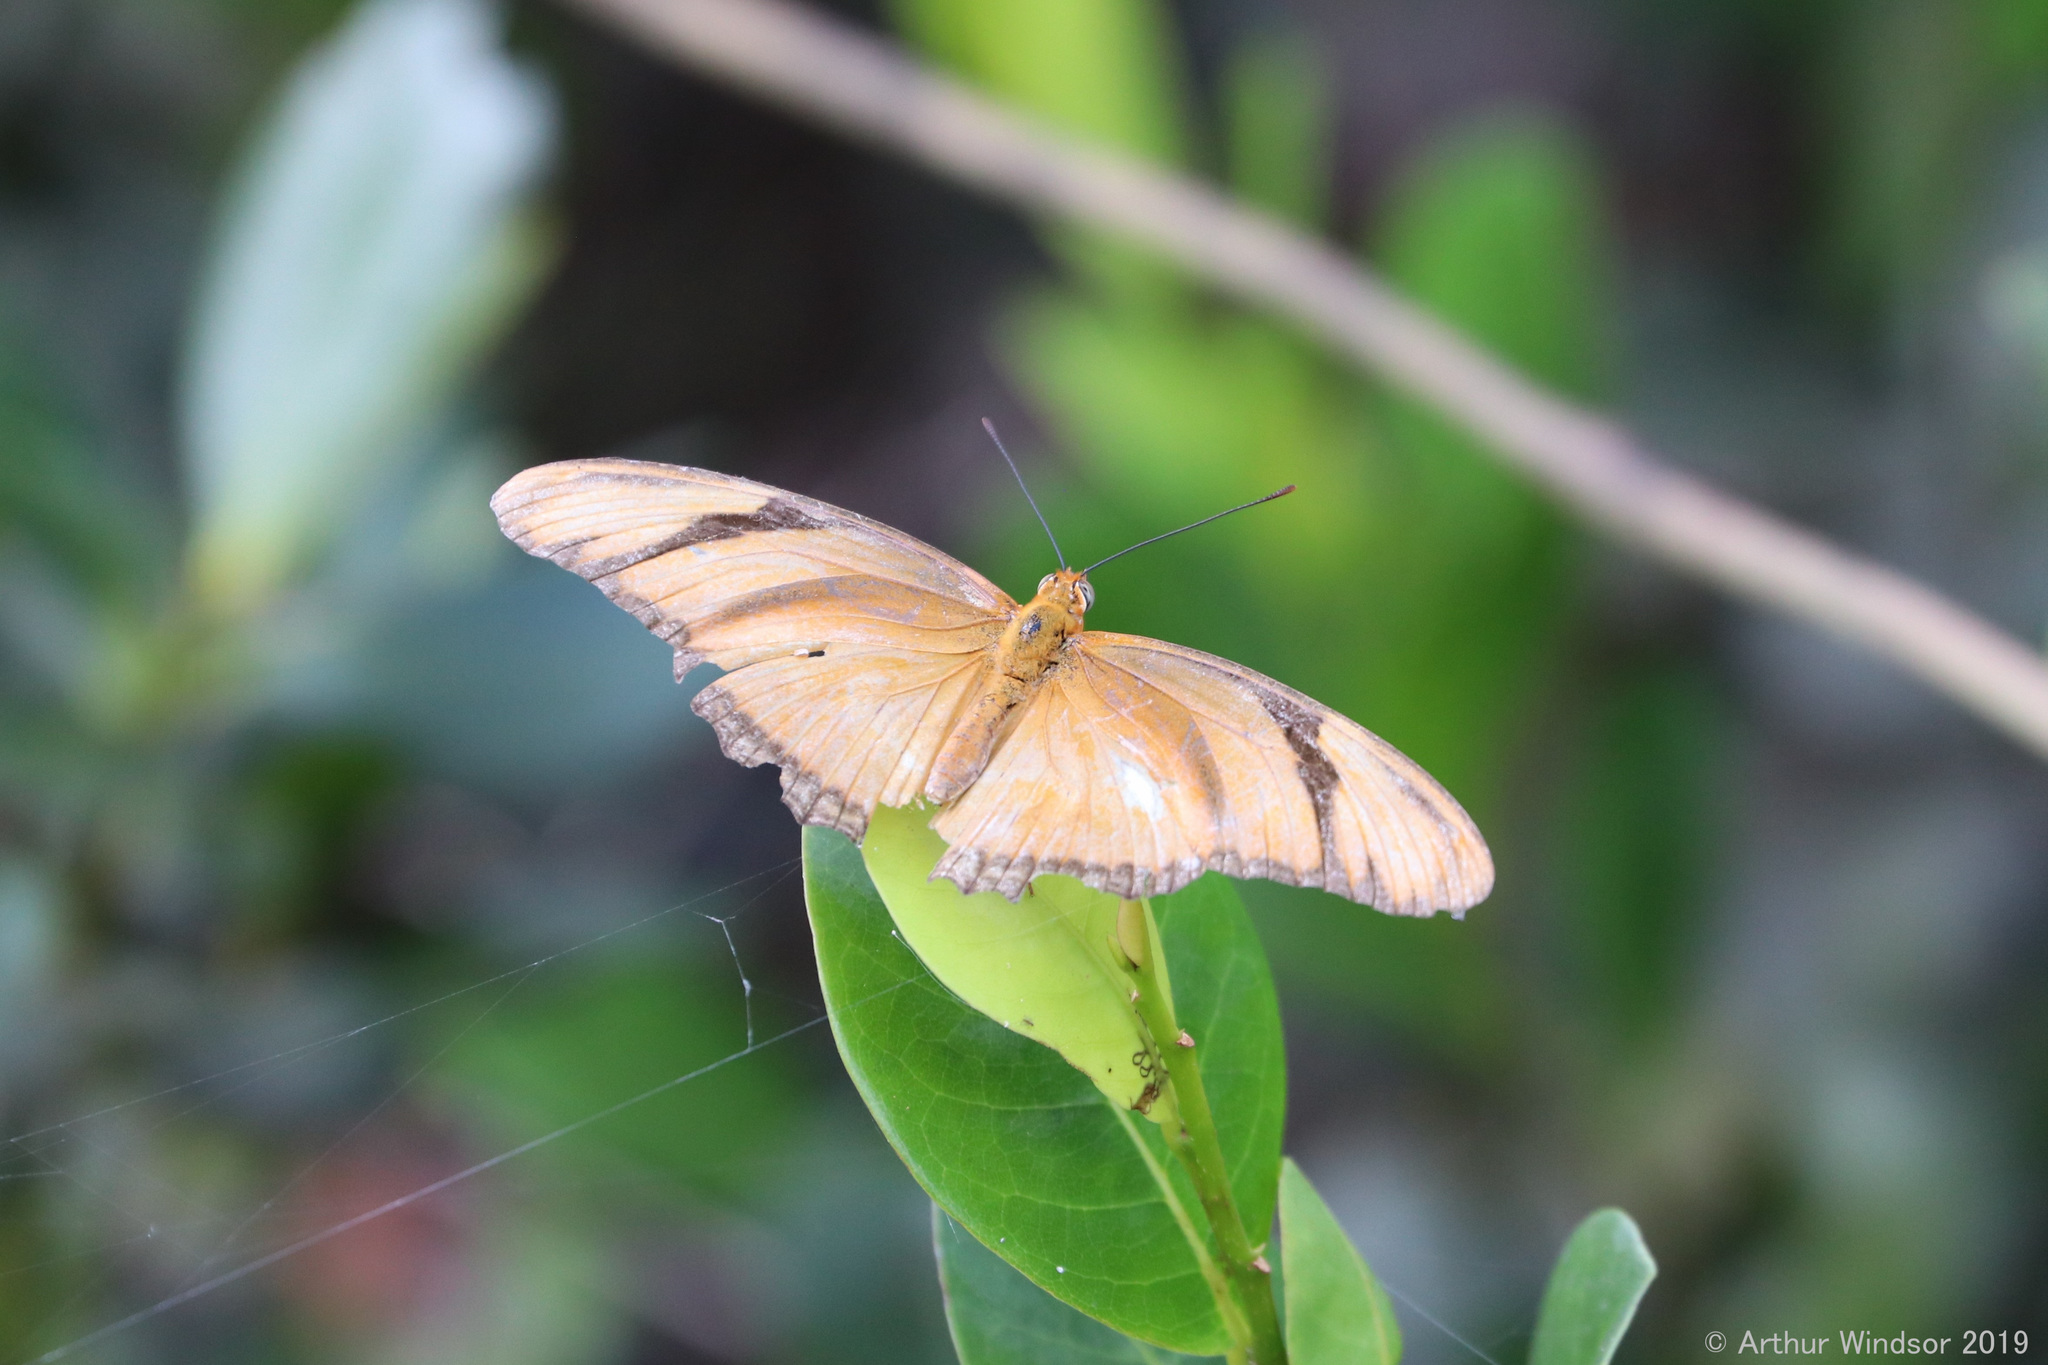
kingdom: Animalia
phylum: Arthropoda
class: Insecta
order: Lepidoptera
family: Nymphalidae
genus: Dryas
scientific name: Dryas iulia
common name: Flambeau
